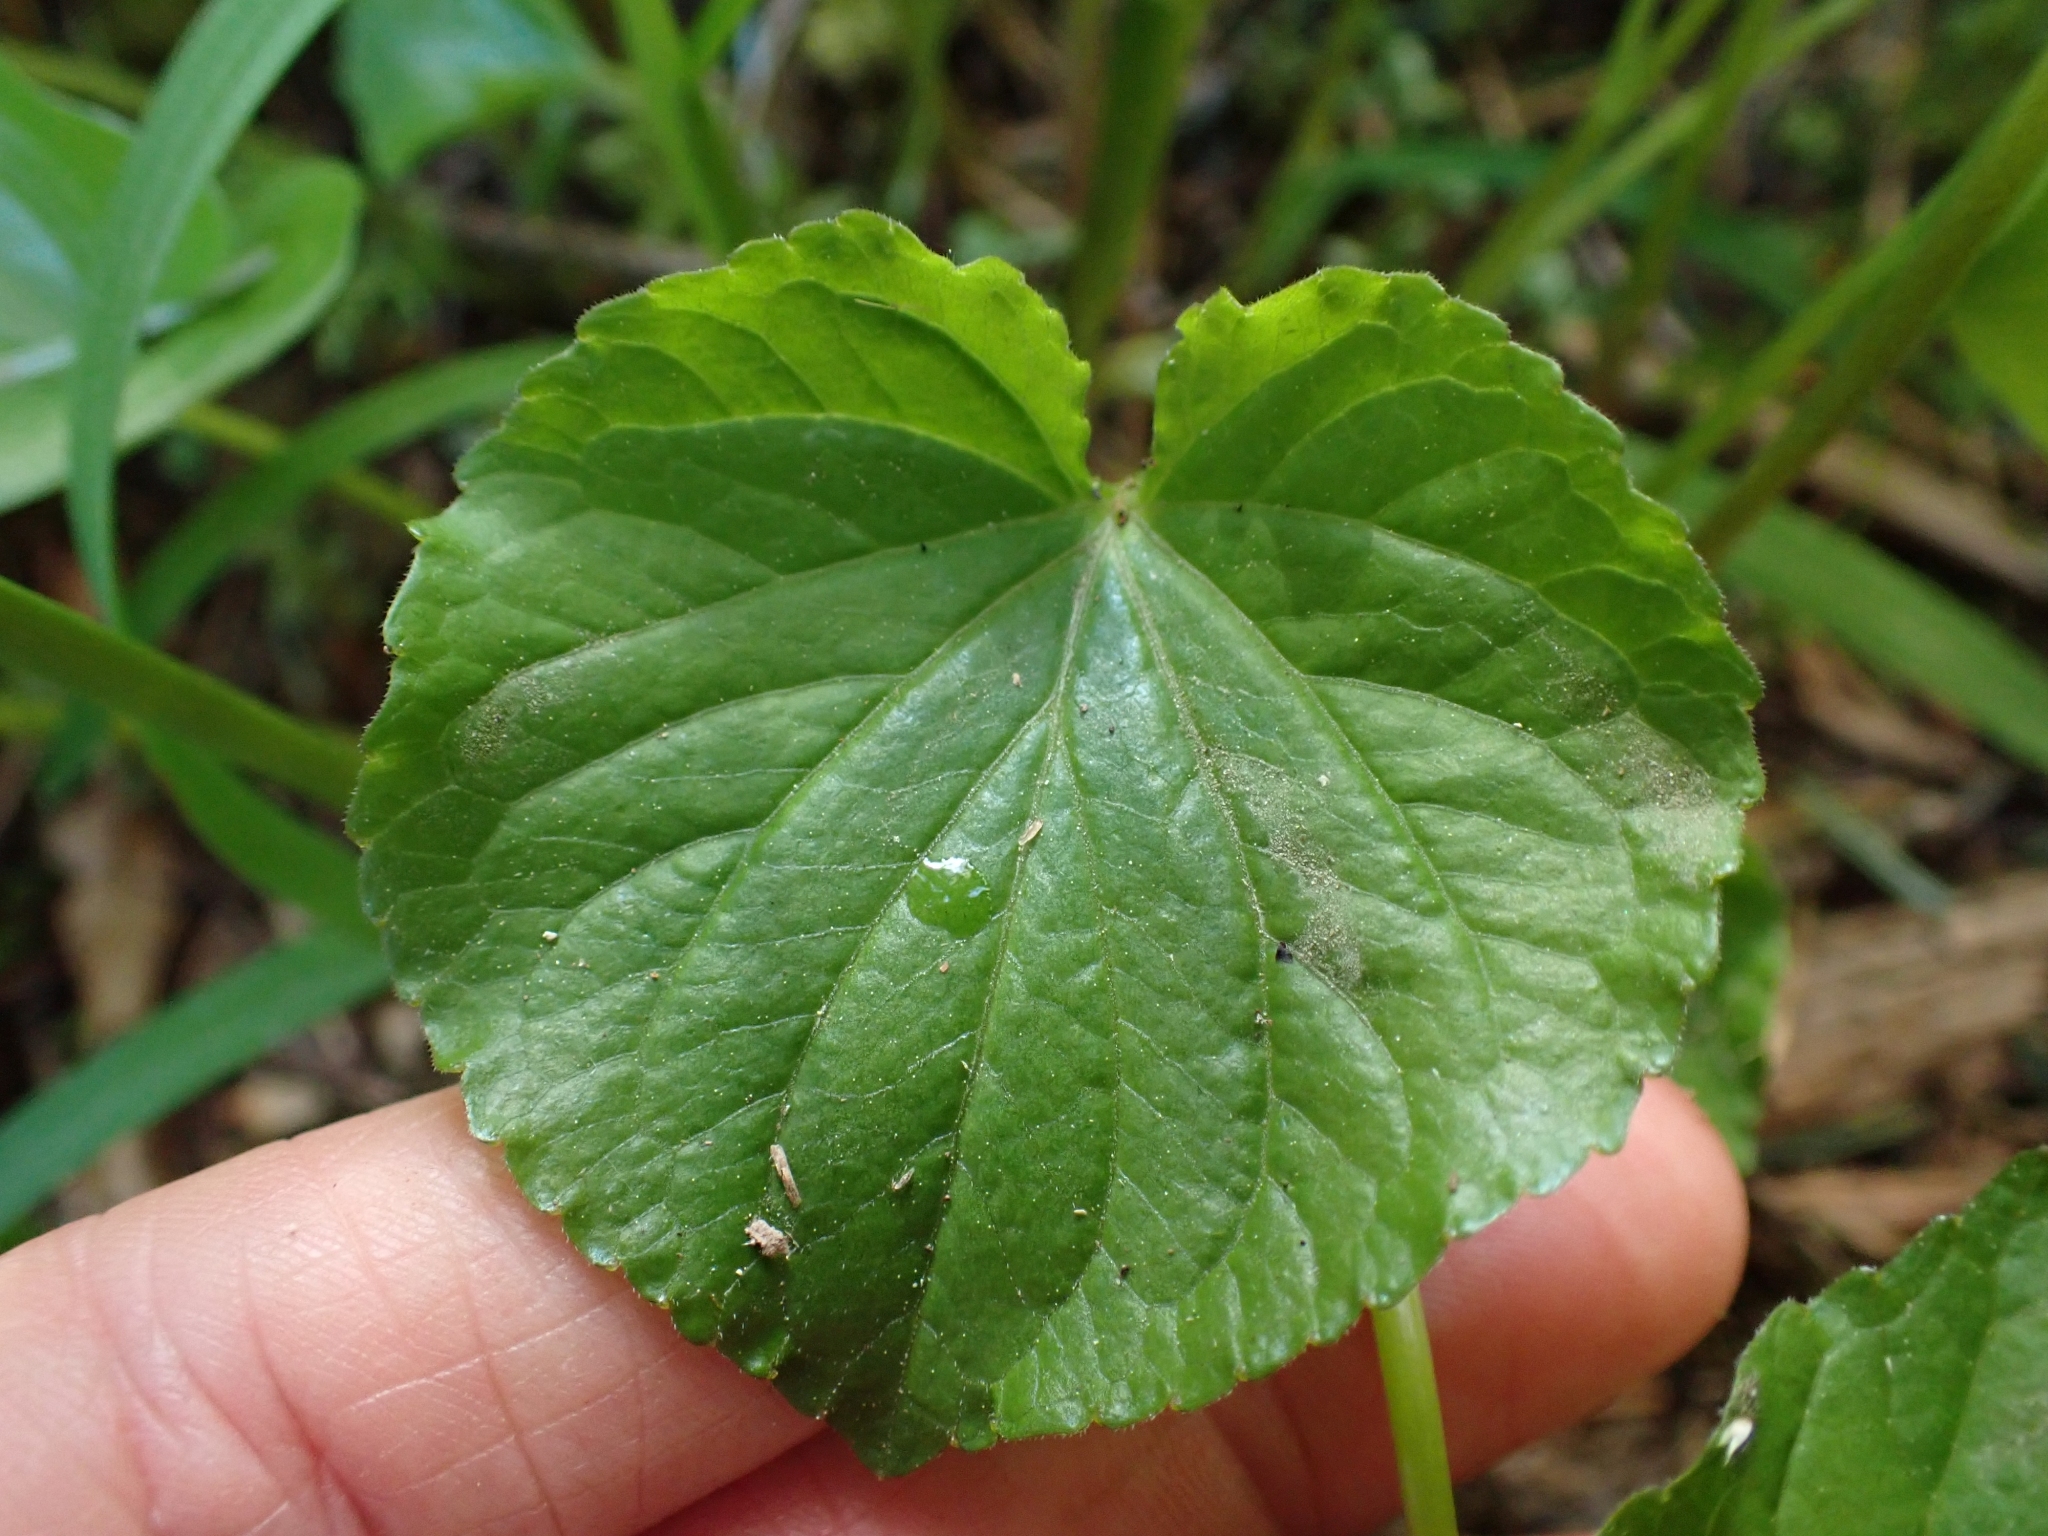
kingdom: Plantae
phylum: Tracheophyta
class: Magnoliopsida
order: Malpighiales
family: Violaceae
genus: Viola
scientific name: Viola glabella
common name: Stream violet
